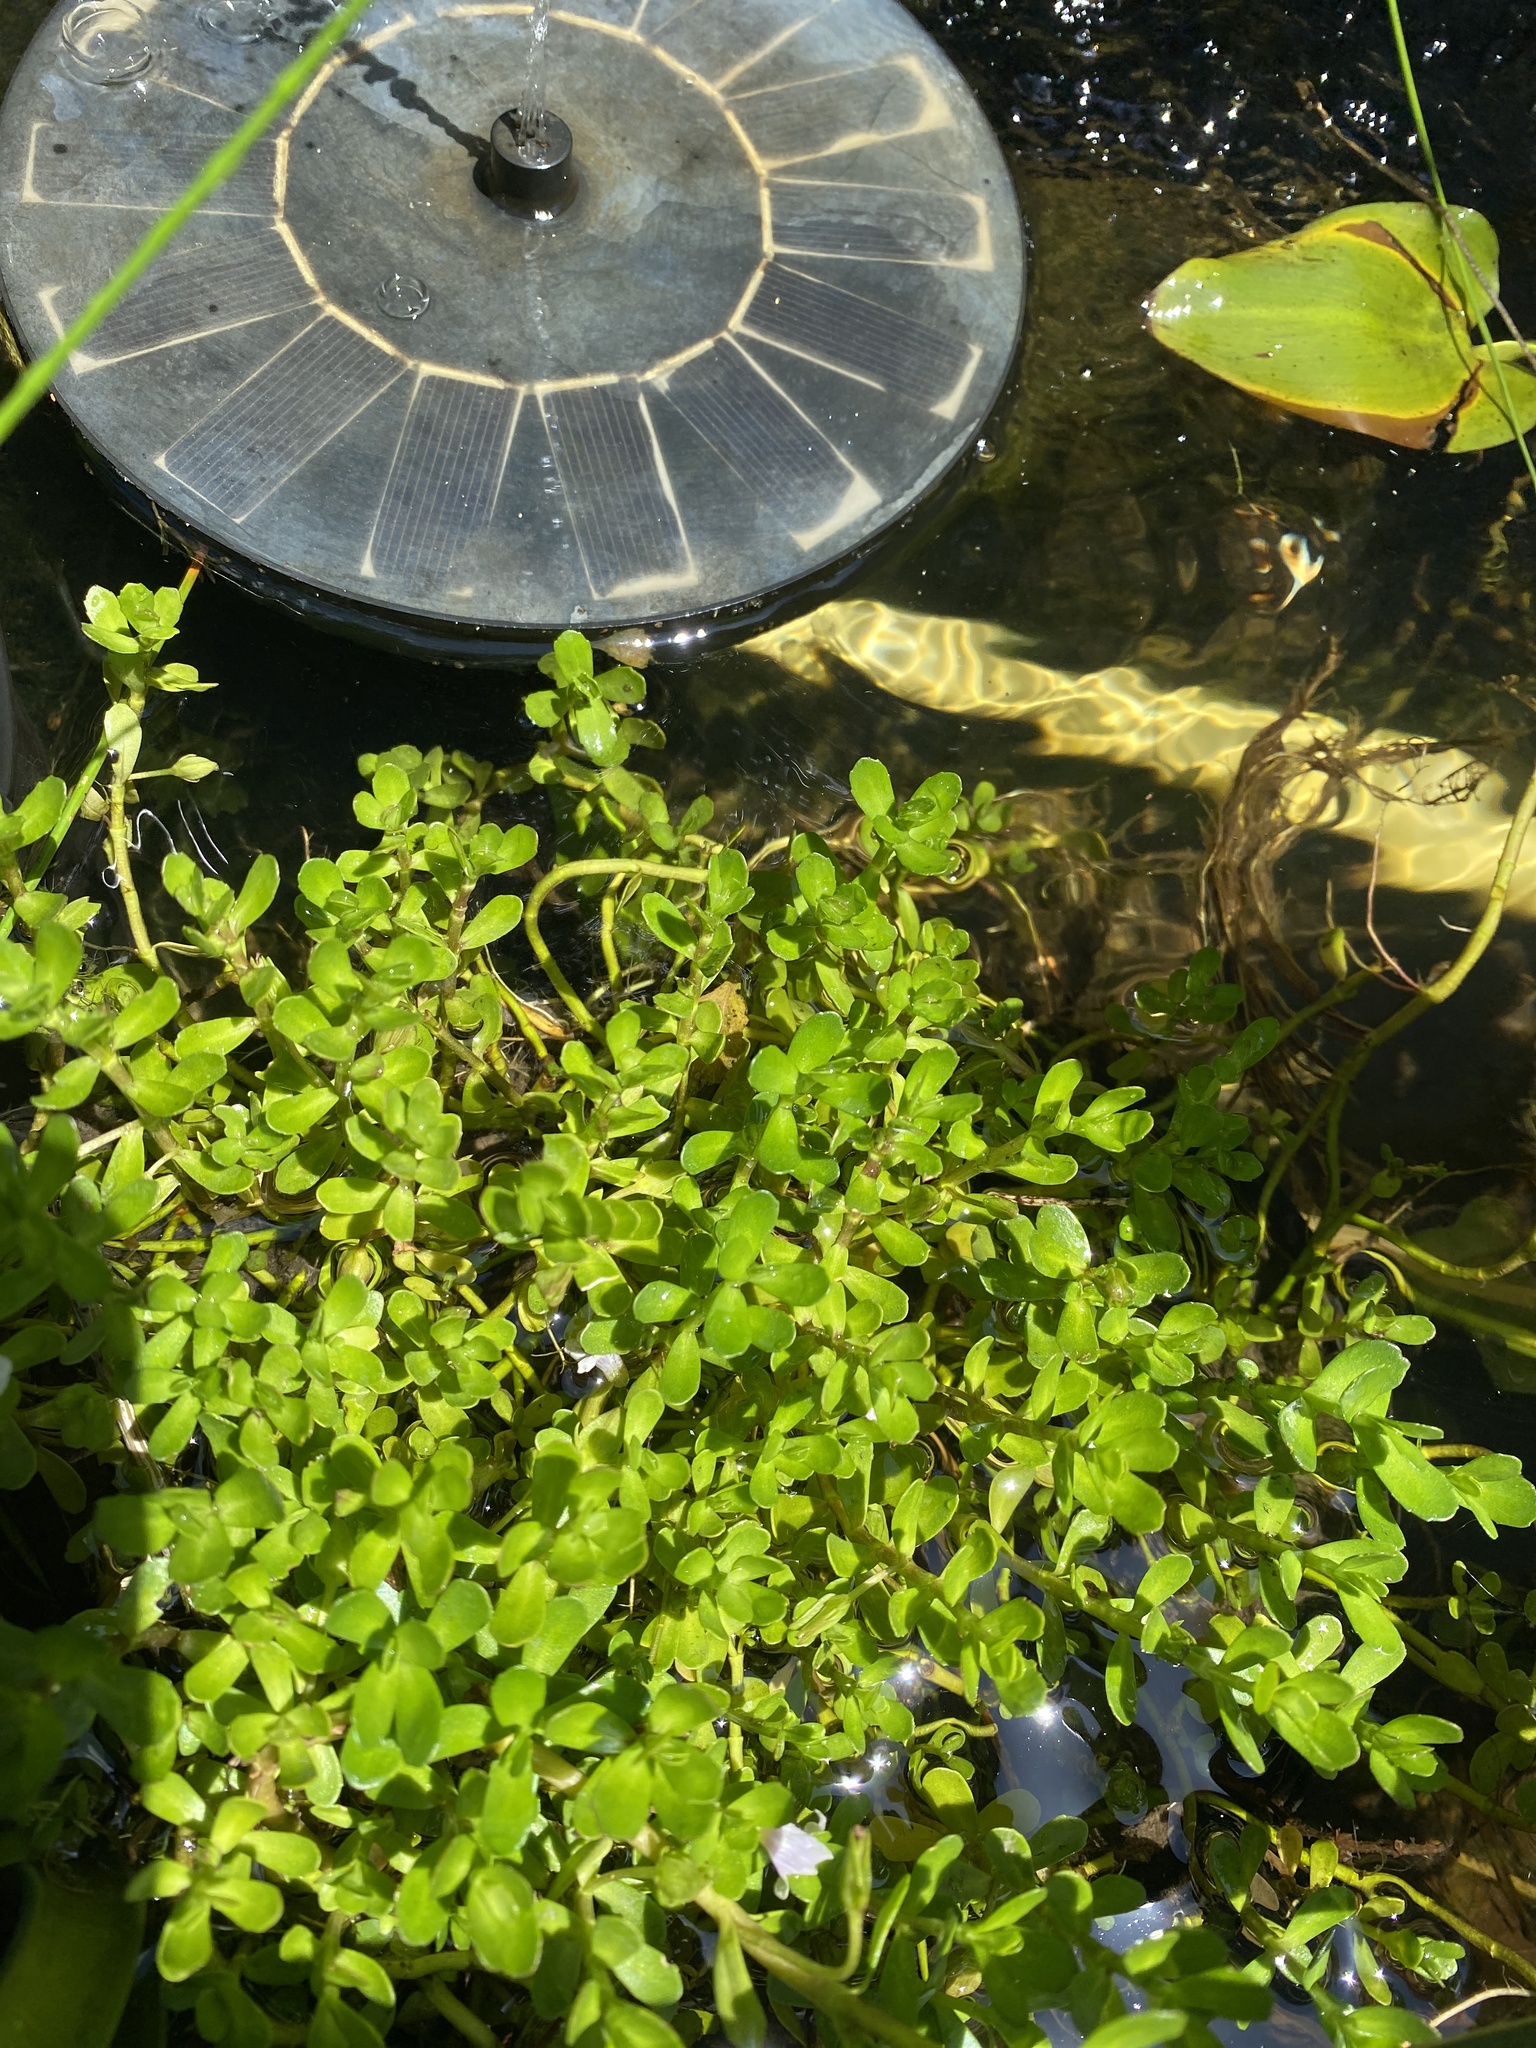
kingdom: Plantae
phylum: Tracheophyta
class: Magnoliopsida
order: Lamiales
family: Plantaginaceae
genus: Bacopa
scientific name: Bacopa monnieri
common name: Indian-pennywort
